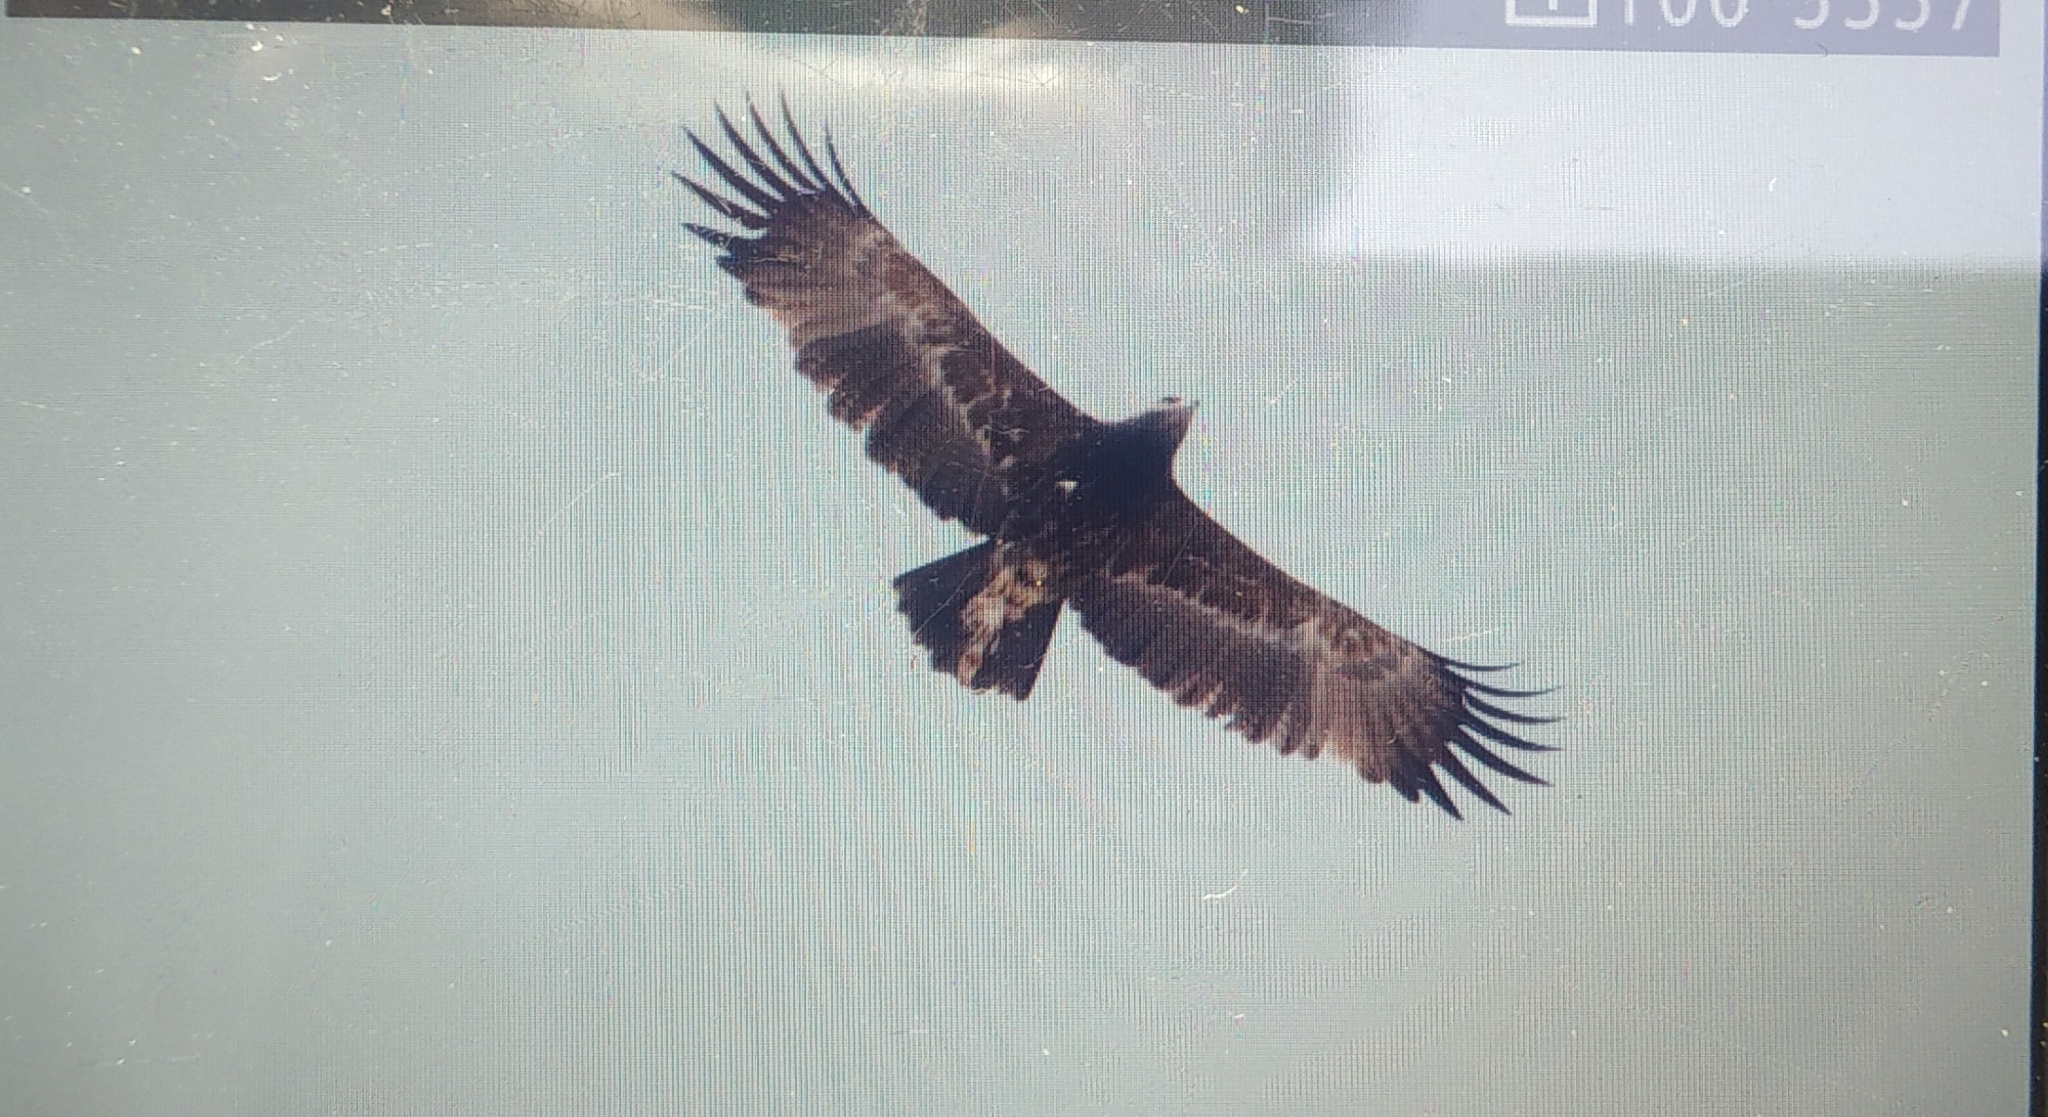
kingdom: Animalia
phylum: Chordata
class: Aves
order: Accipitriformes
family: Accipitridae
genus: Aquila
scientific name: Aquila nipalensis
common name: Steppe eagle
